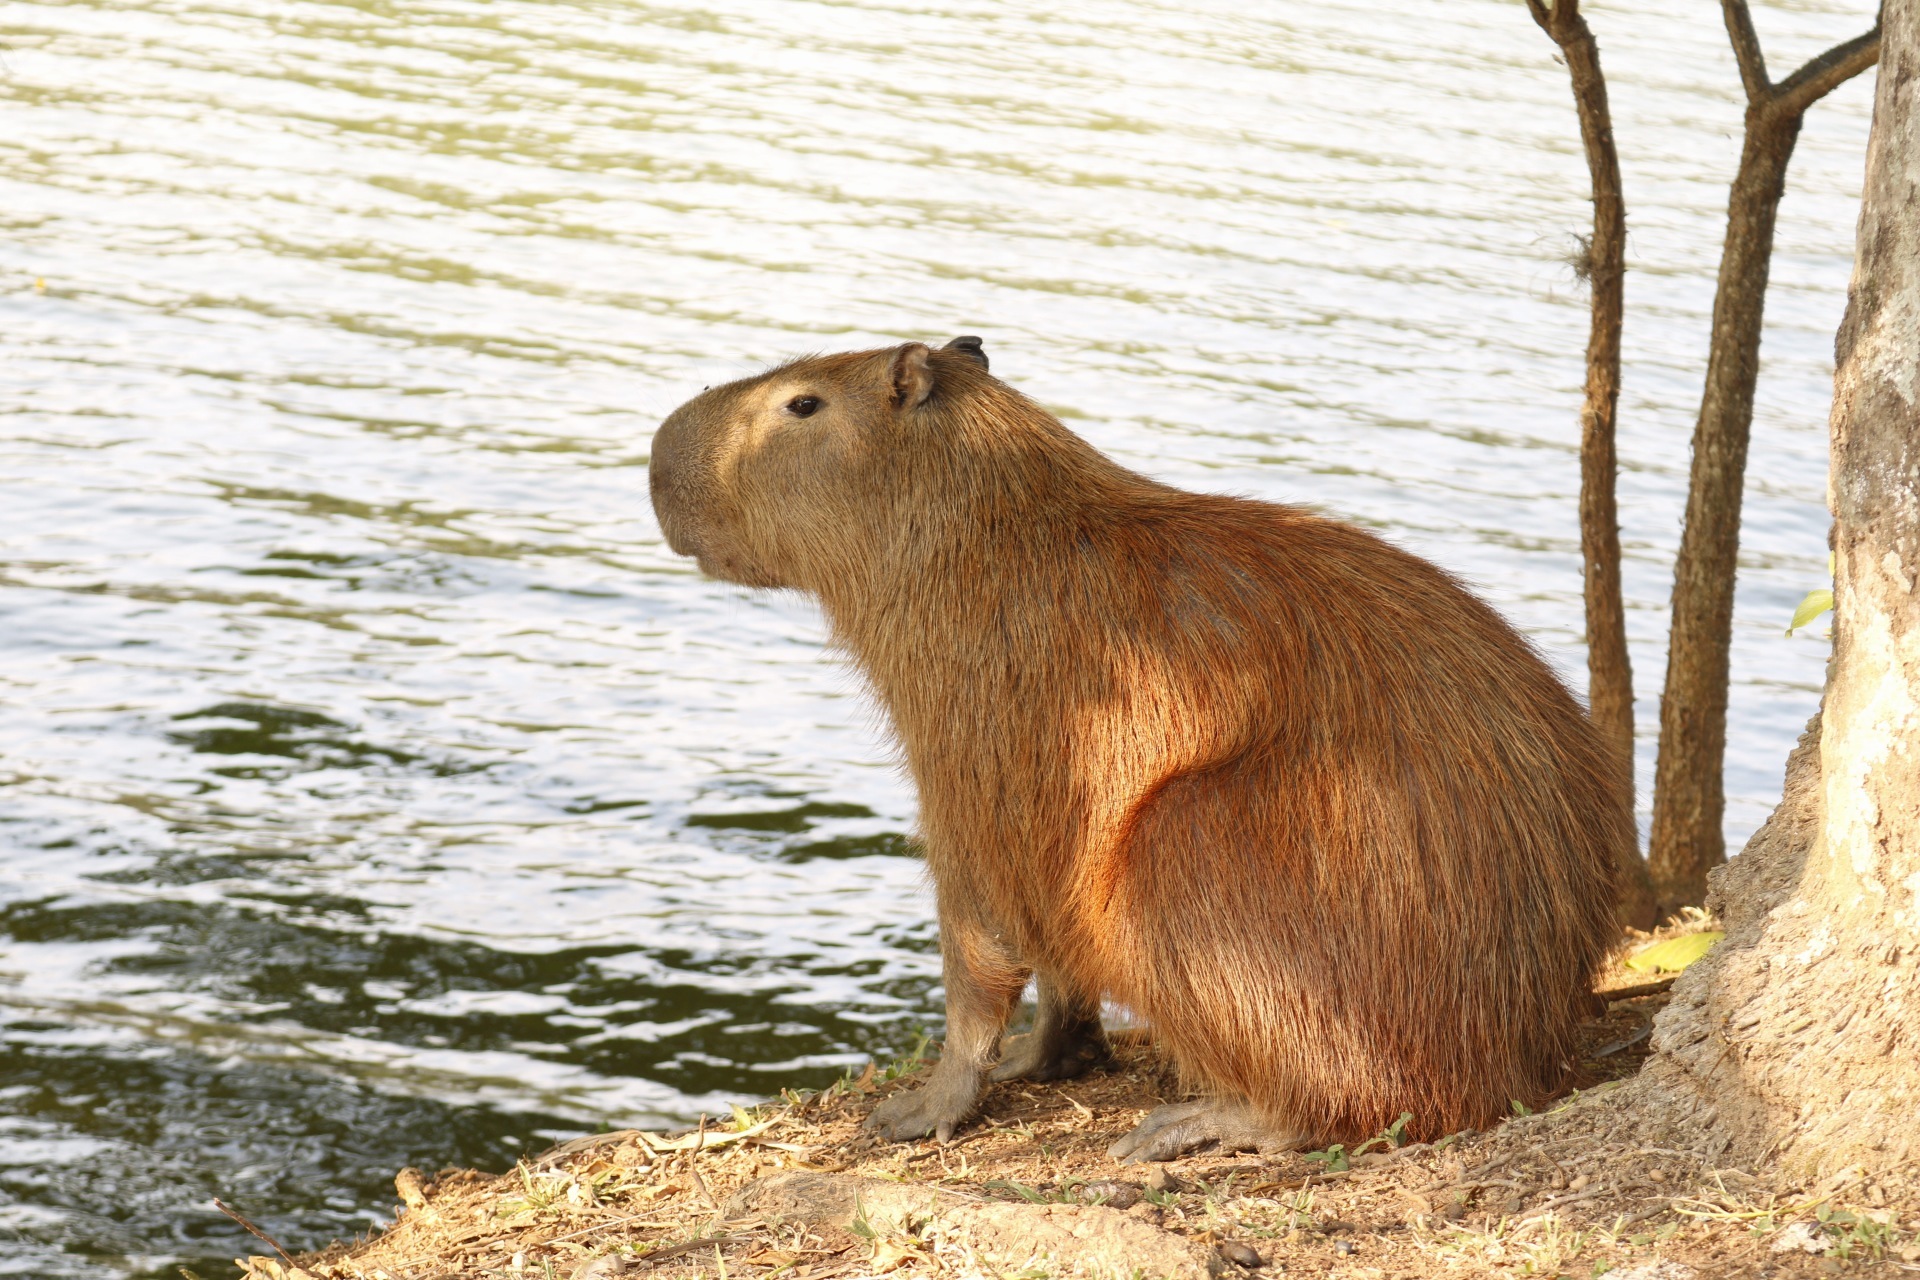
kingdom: Animalia
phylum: Chordata
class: Mammalia
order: Rodentia
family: Caviidae
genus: Hydrochoerus
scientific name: Hydrochoerus hydrochaeris
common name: Capybara
